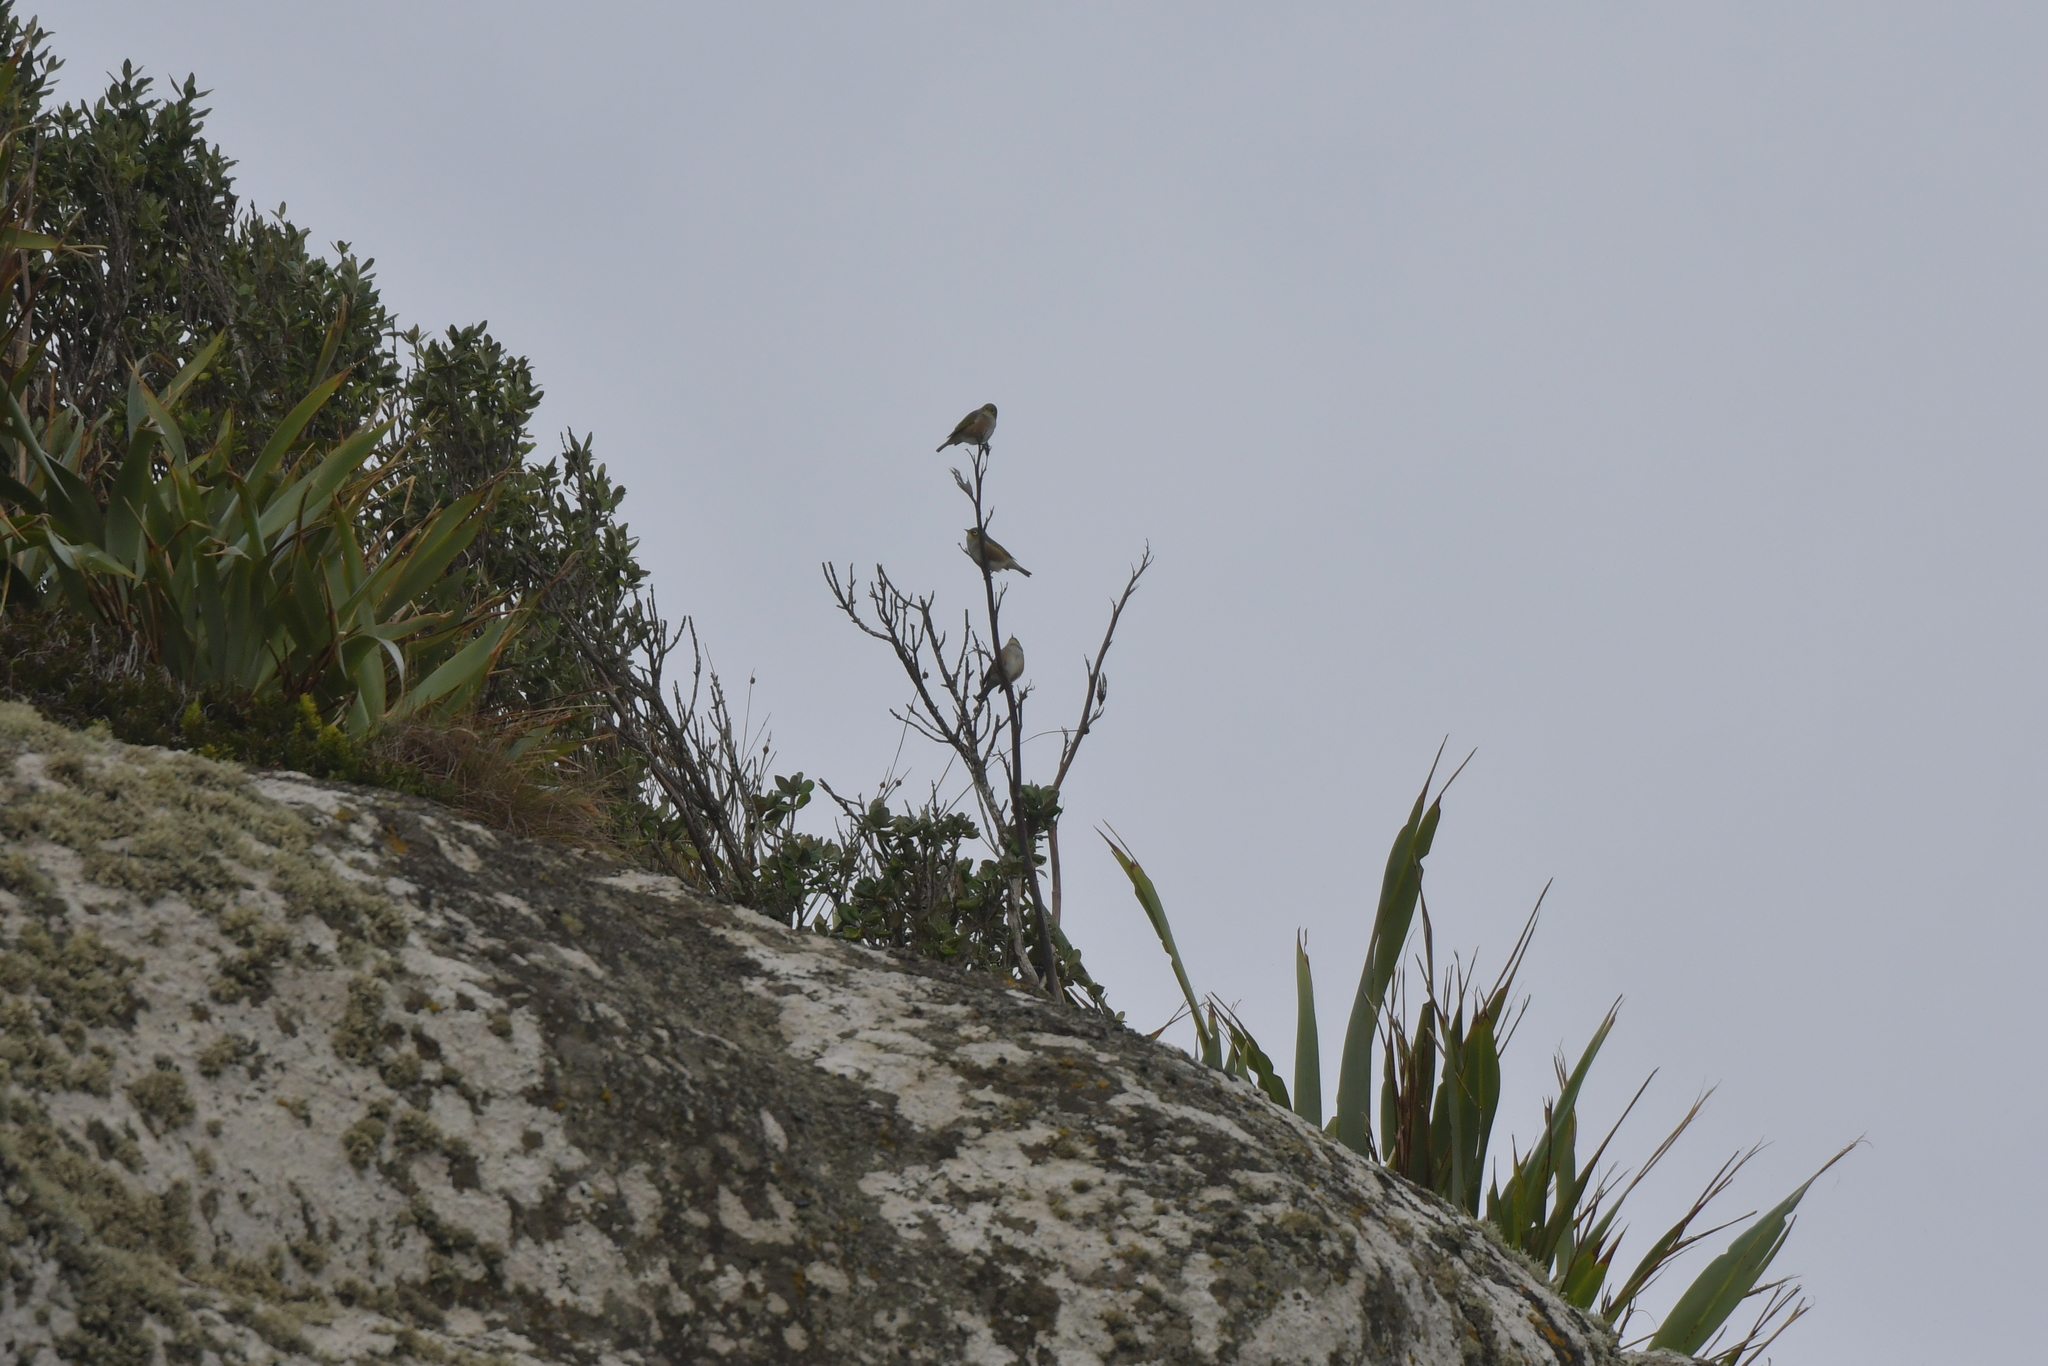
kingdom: Animalia
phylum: Chordata
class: Aves
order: Passeriformes
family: Zosteropidae
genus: Zosterops
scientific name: Zosterops lateralis
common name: Silvereye
